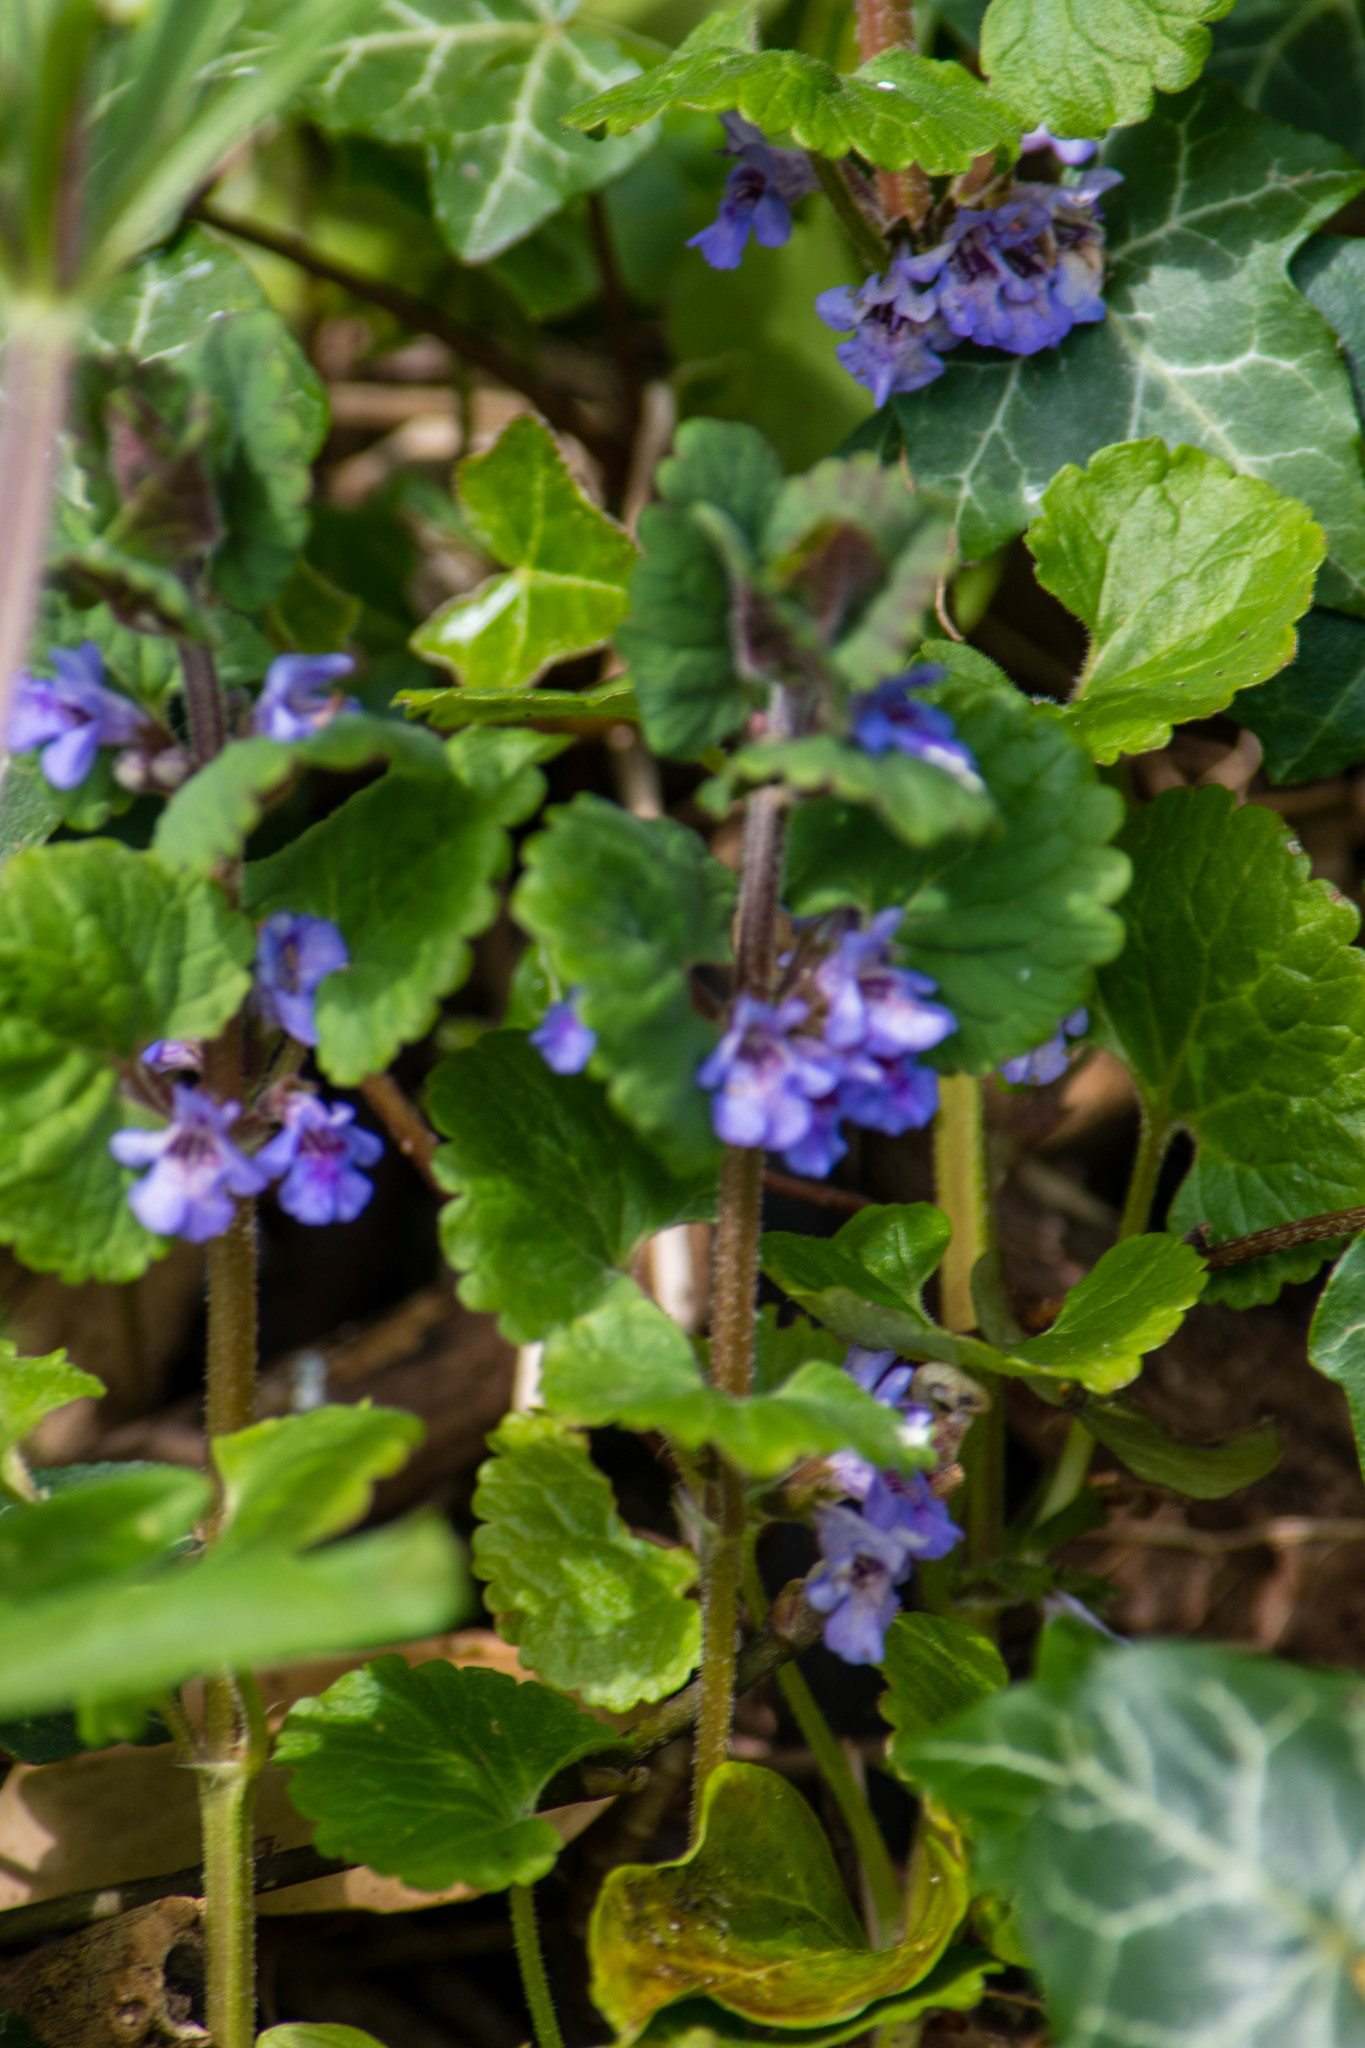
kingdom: Plantae
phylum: Tracheophyta
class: Magnoliopsida
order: Lamiales
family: Lamiaceae
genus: Glechoma
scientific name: Glechoma hederacea
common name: Ground ivy
